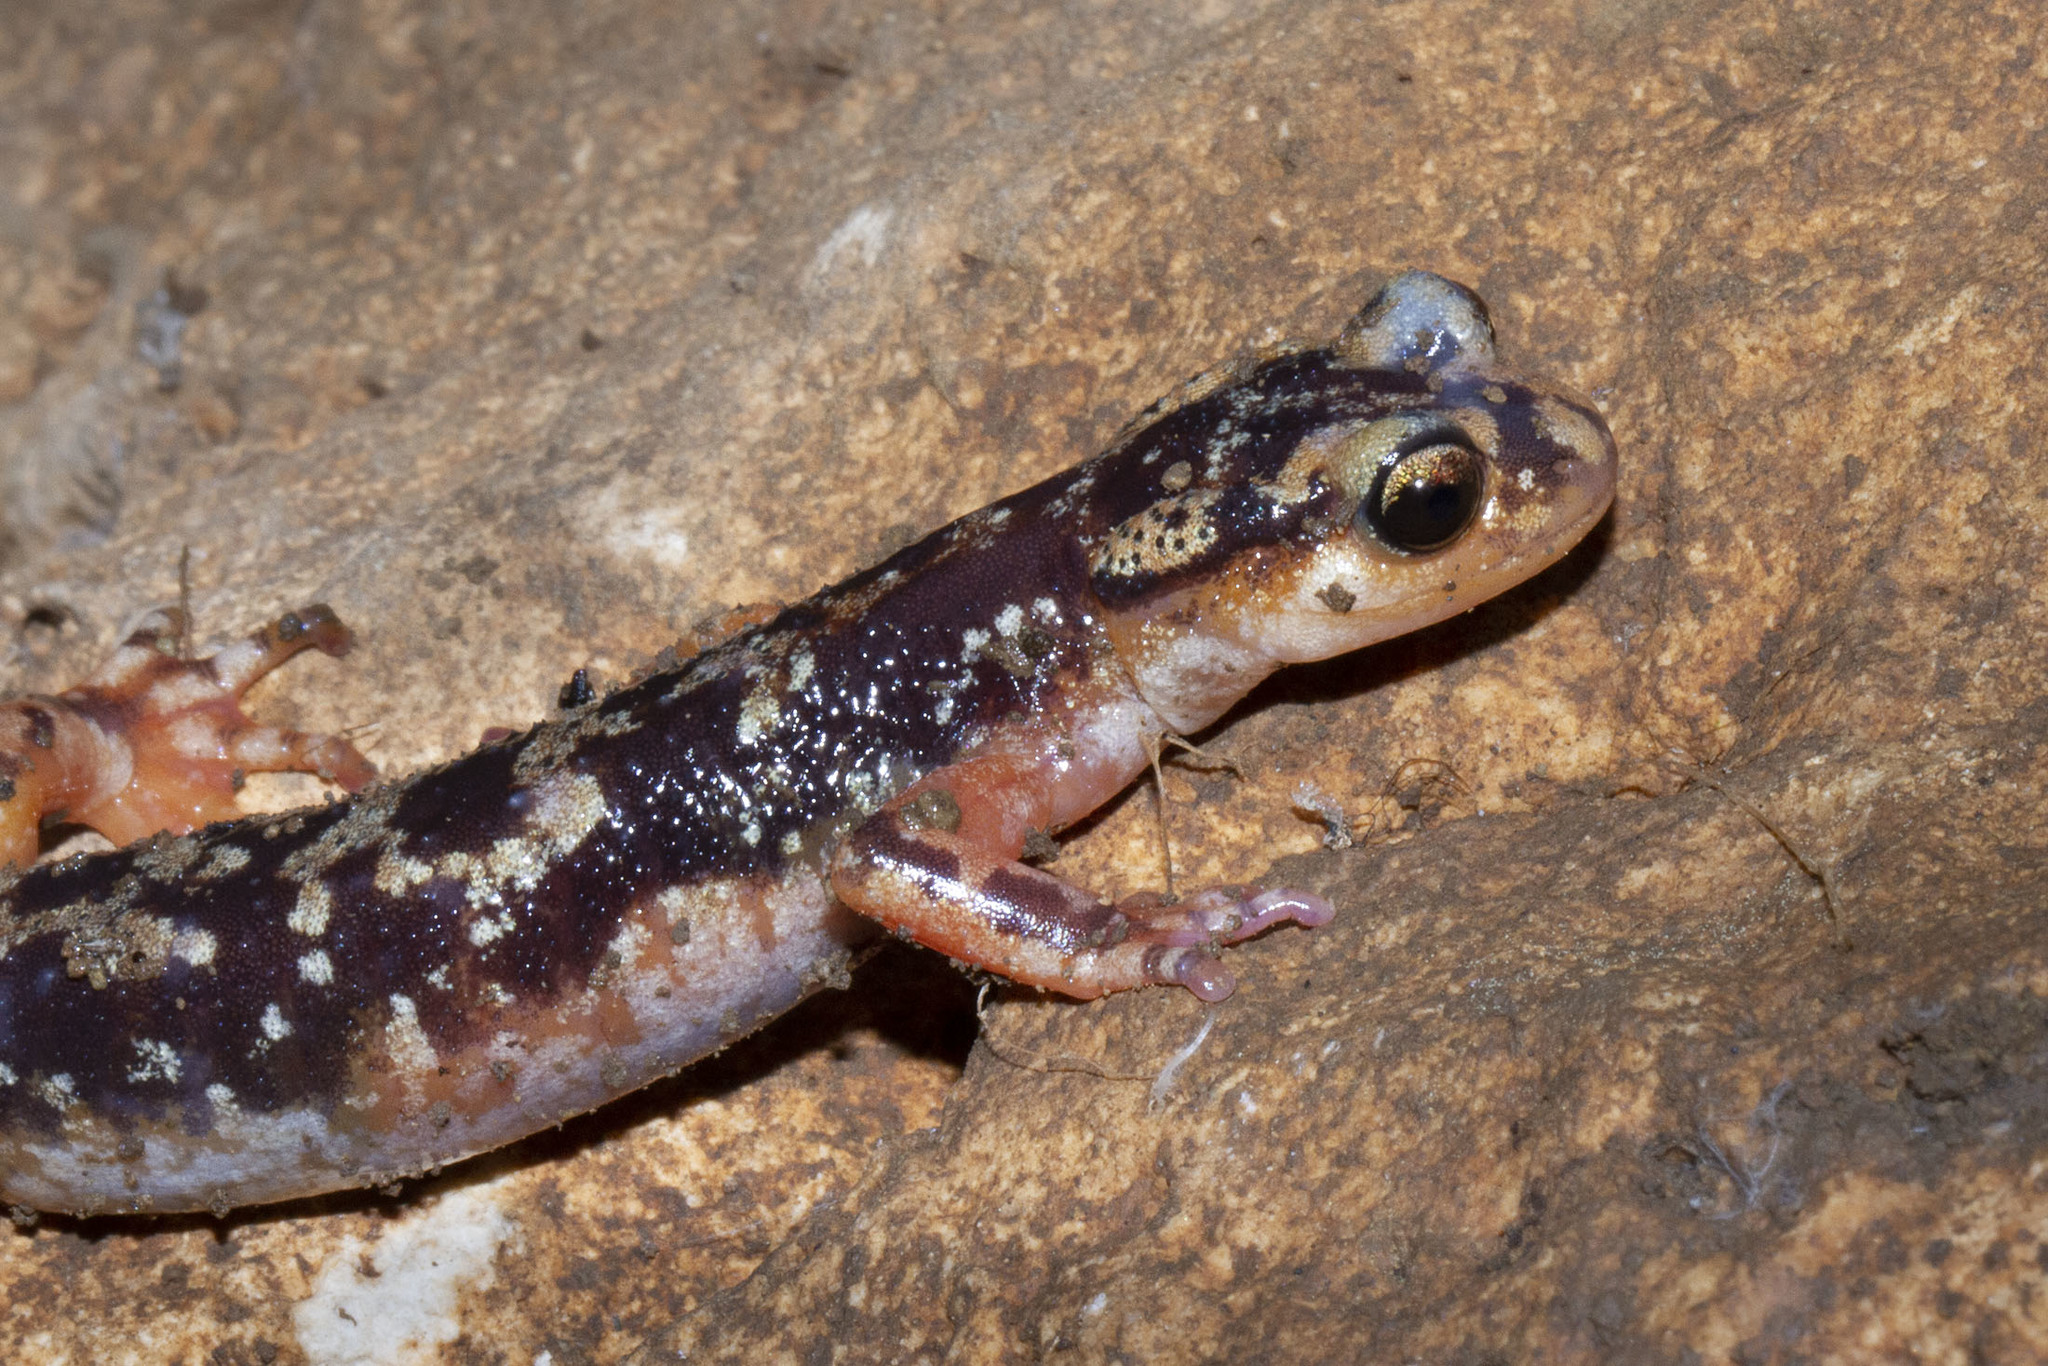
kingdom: Animalia
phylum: Chordata
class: Amphibia
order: Caudata
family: Salamandridae
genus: Lyciasalamandra
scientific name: Lyciasalamandra luschani
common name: Luschan's salamander
